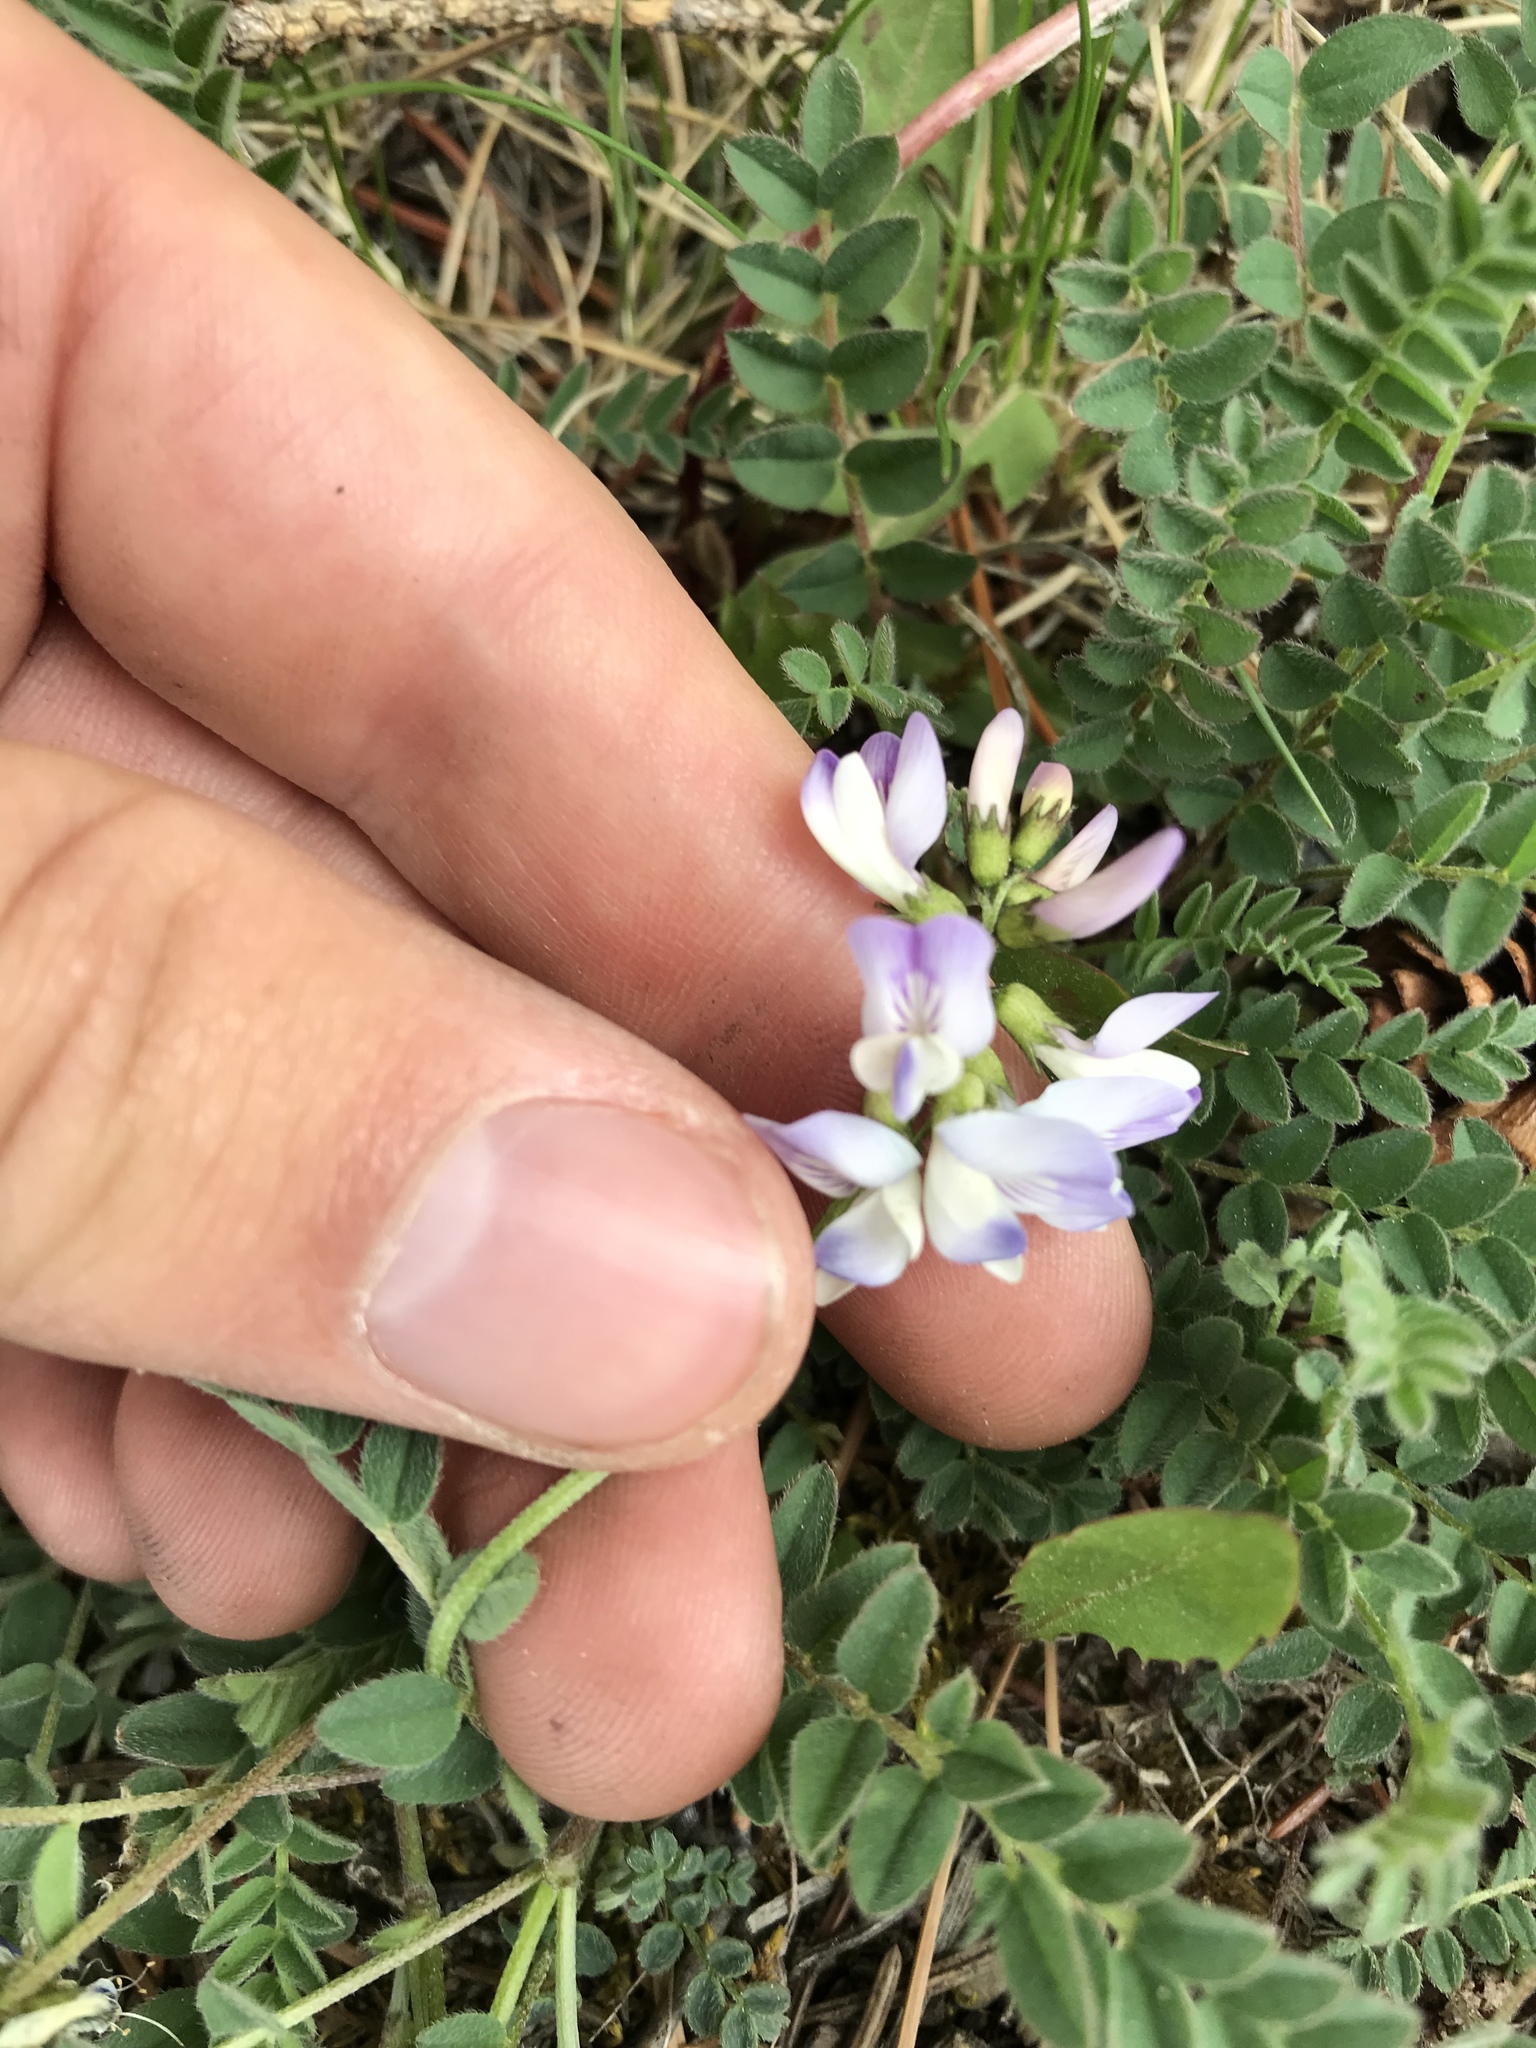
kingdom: Plantae
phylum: Tracheophyta
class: Magnoliopsida
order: Fabales
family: Fabaceae
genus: Astragalus
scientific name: Astragalus alpinus
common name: Alpine milk-vetch
